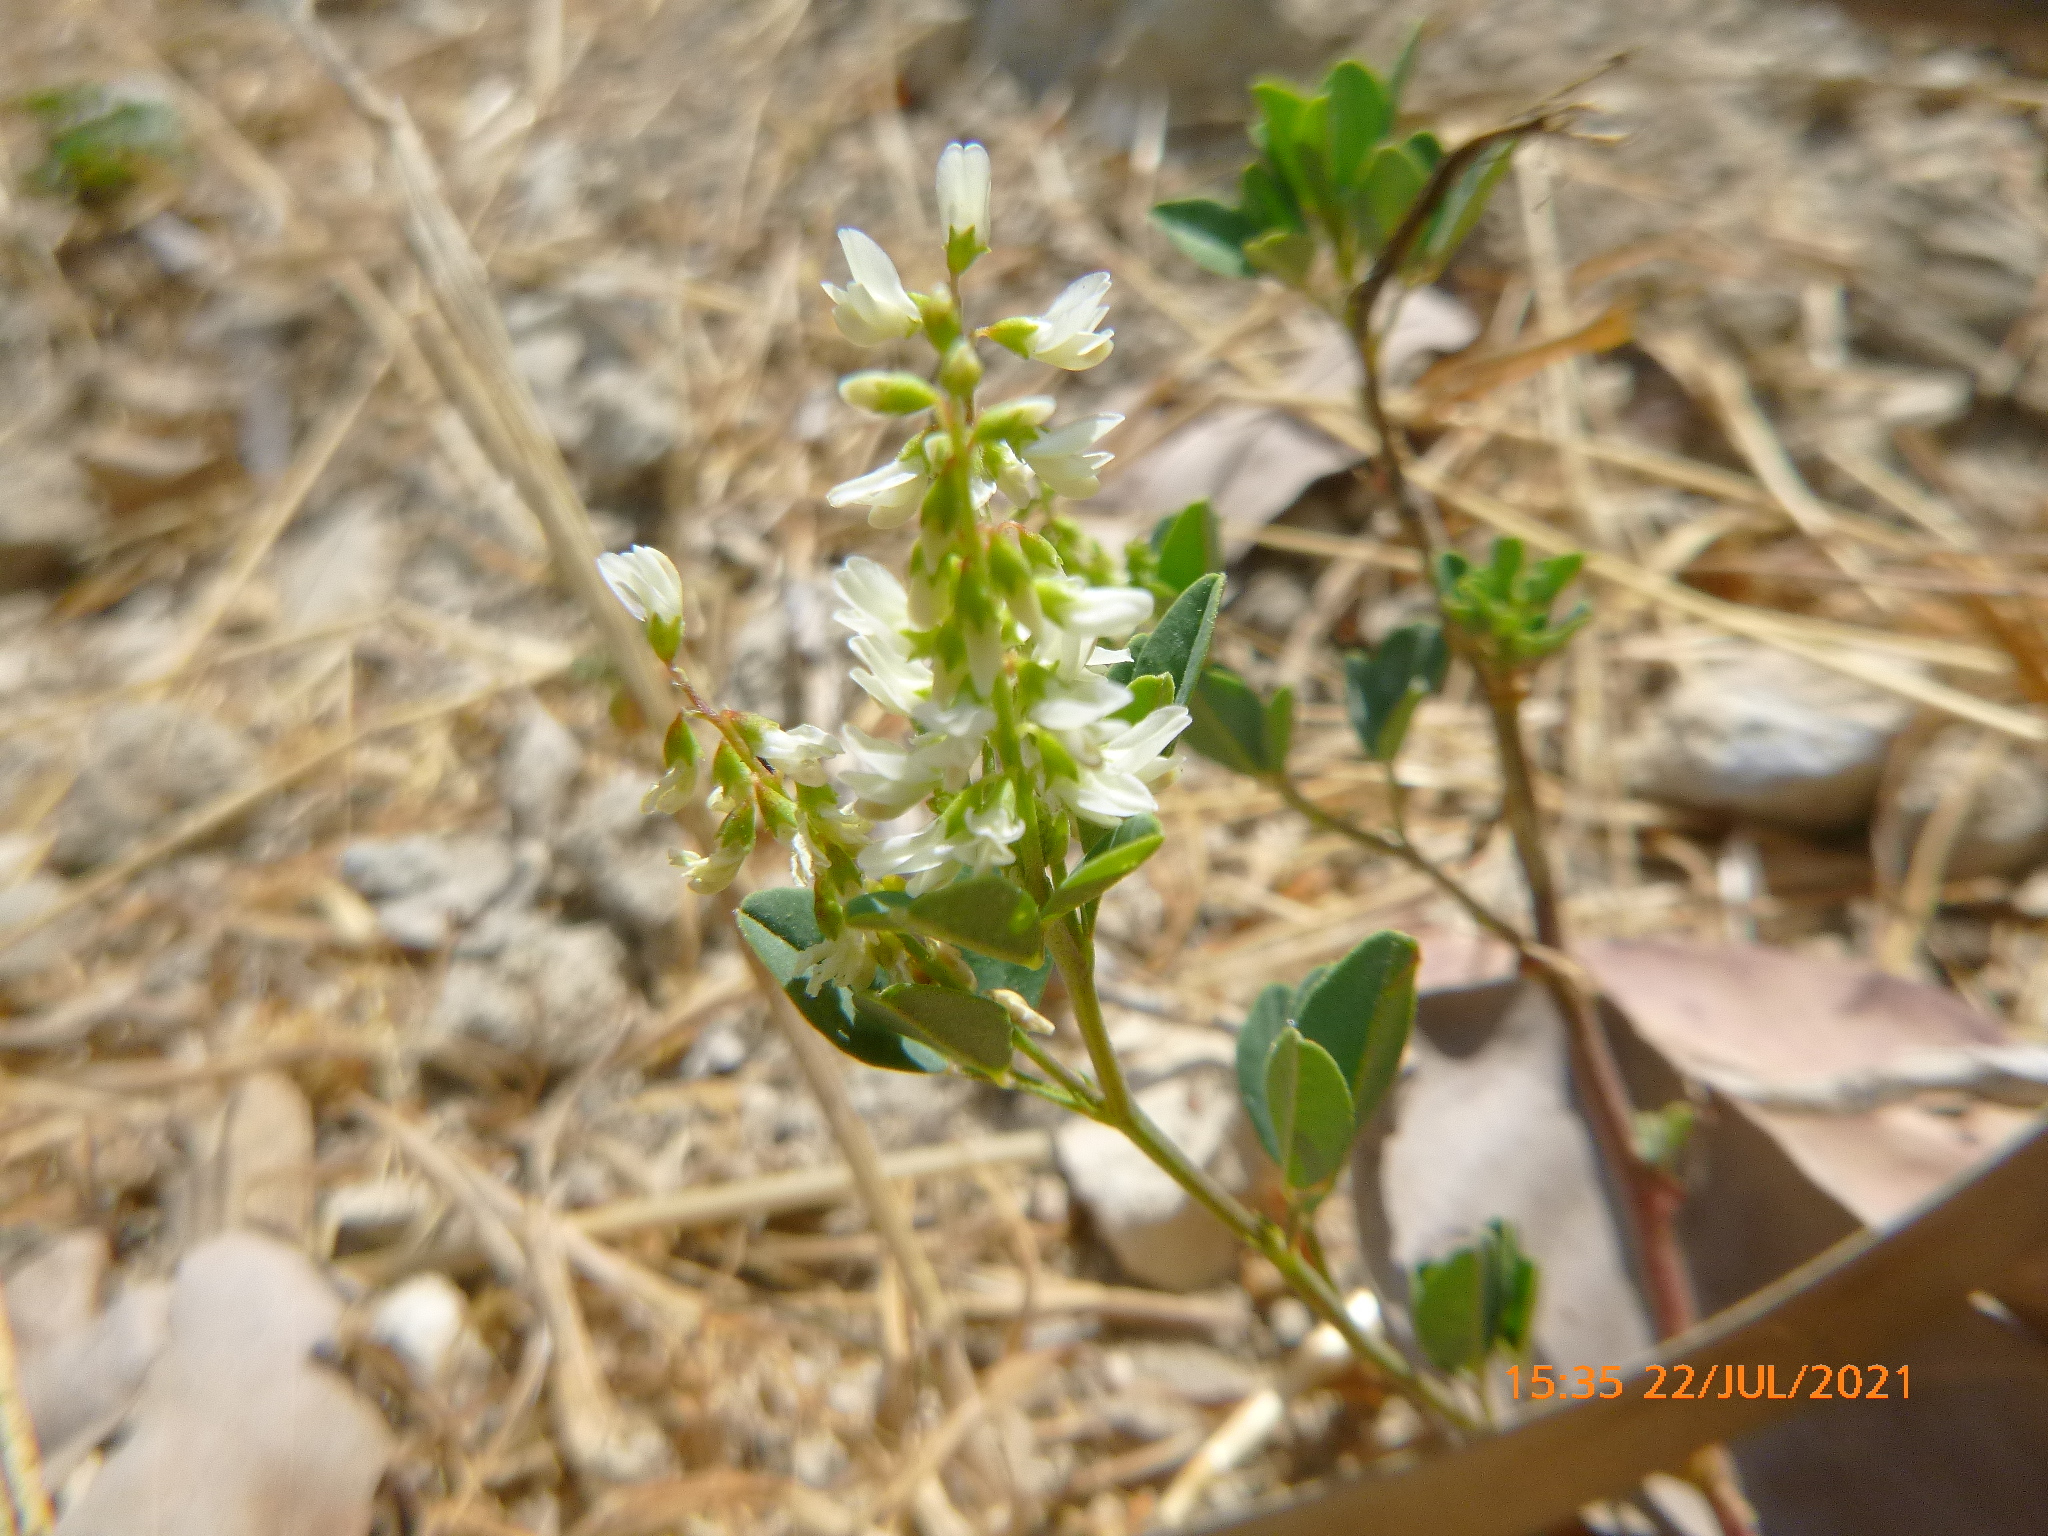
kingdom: Plantae
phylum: Tracheophyta
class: Magnoliopsida
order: Fabales
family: Fabaceae
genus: Melilotus
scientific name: Melilotus albus
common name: White melilot
